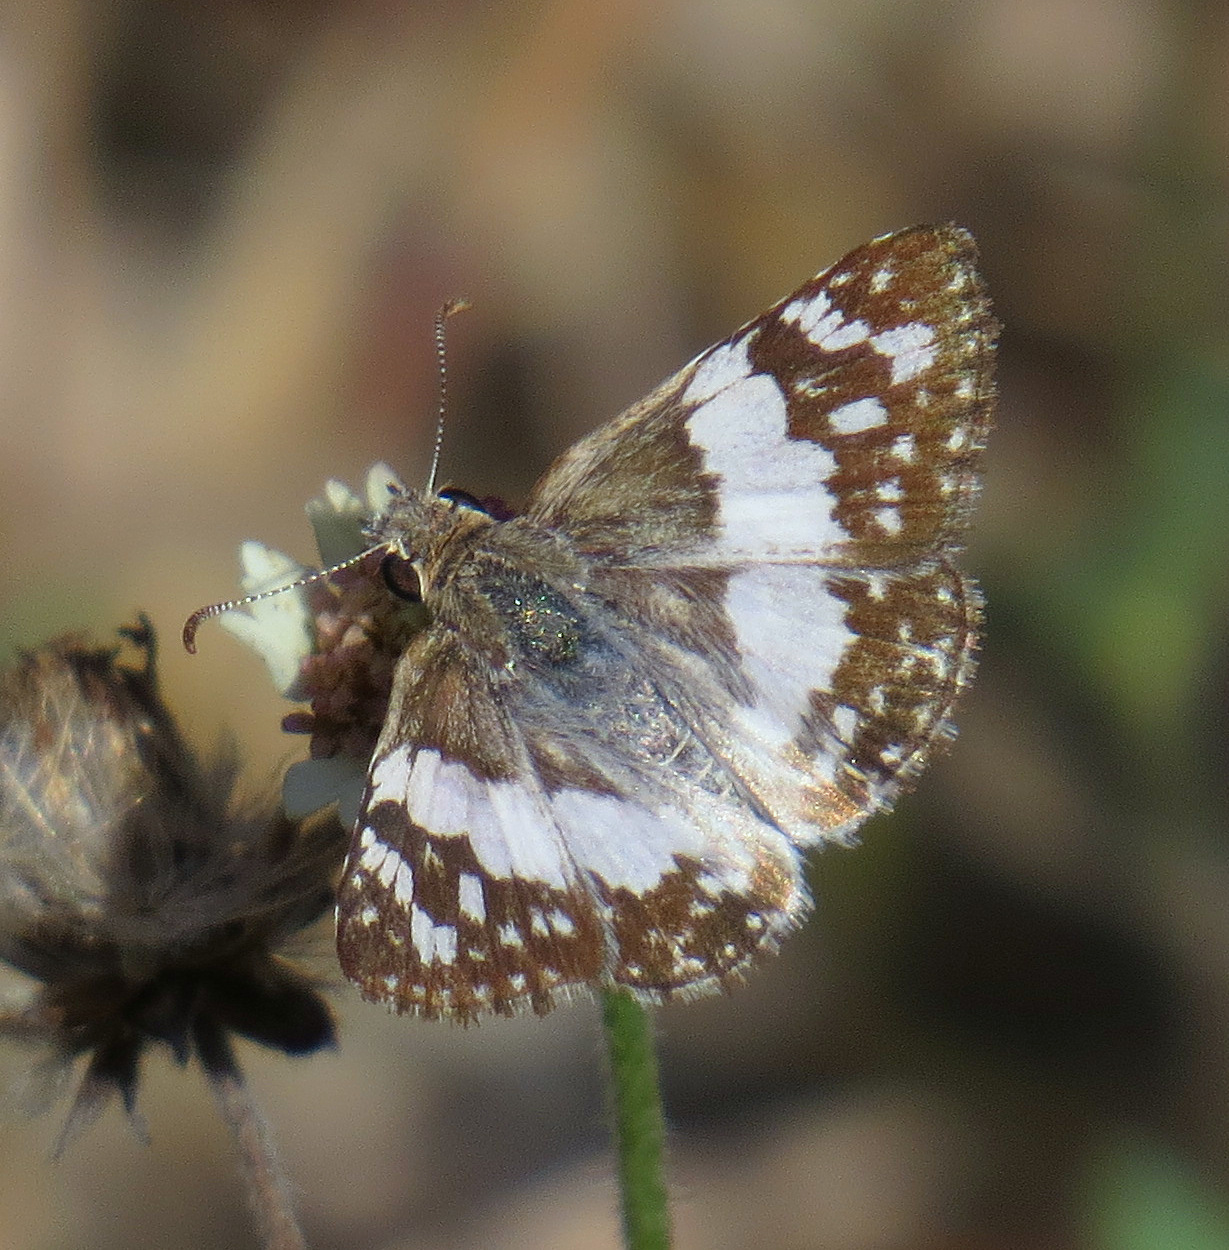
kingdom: Animalia
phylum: Arthropoda
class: Insecta
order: Lepidoptera
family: Hesperiidae
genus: Heliopyrgus
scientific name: Heliopyrgus domicella
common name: Erichson's white skipper
